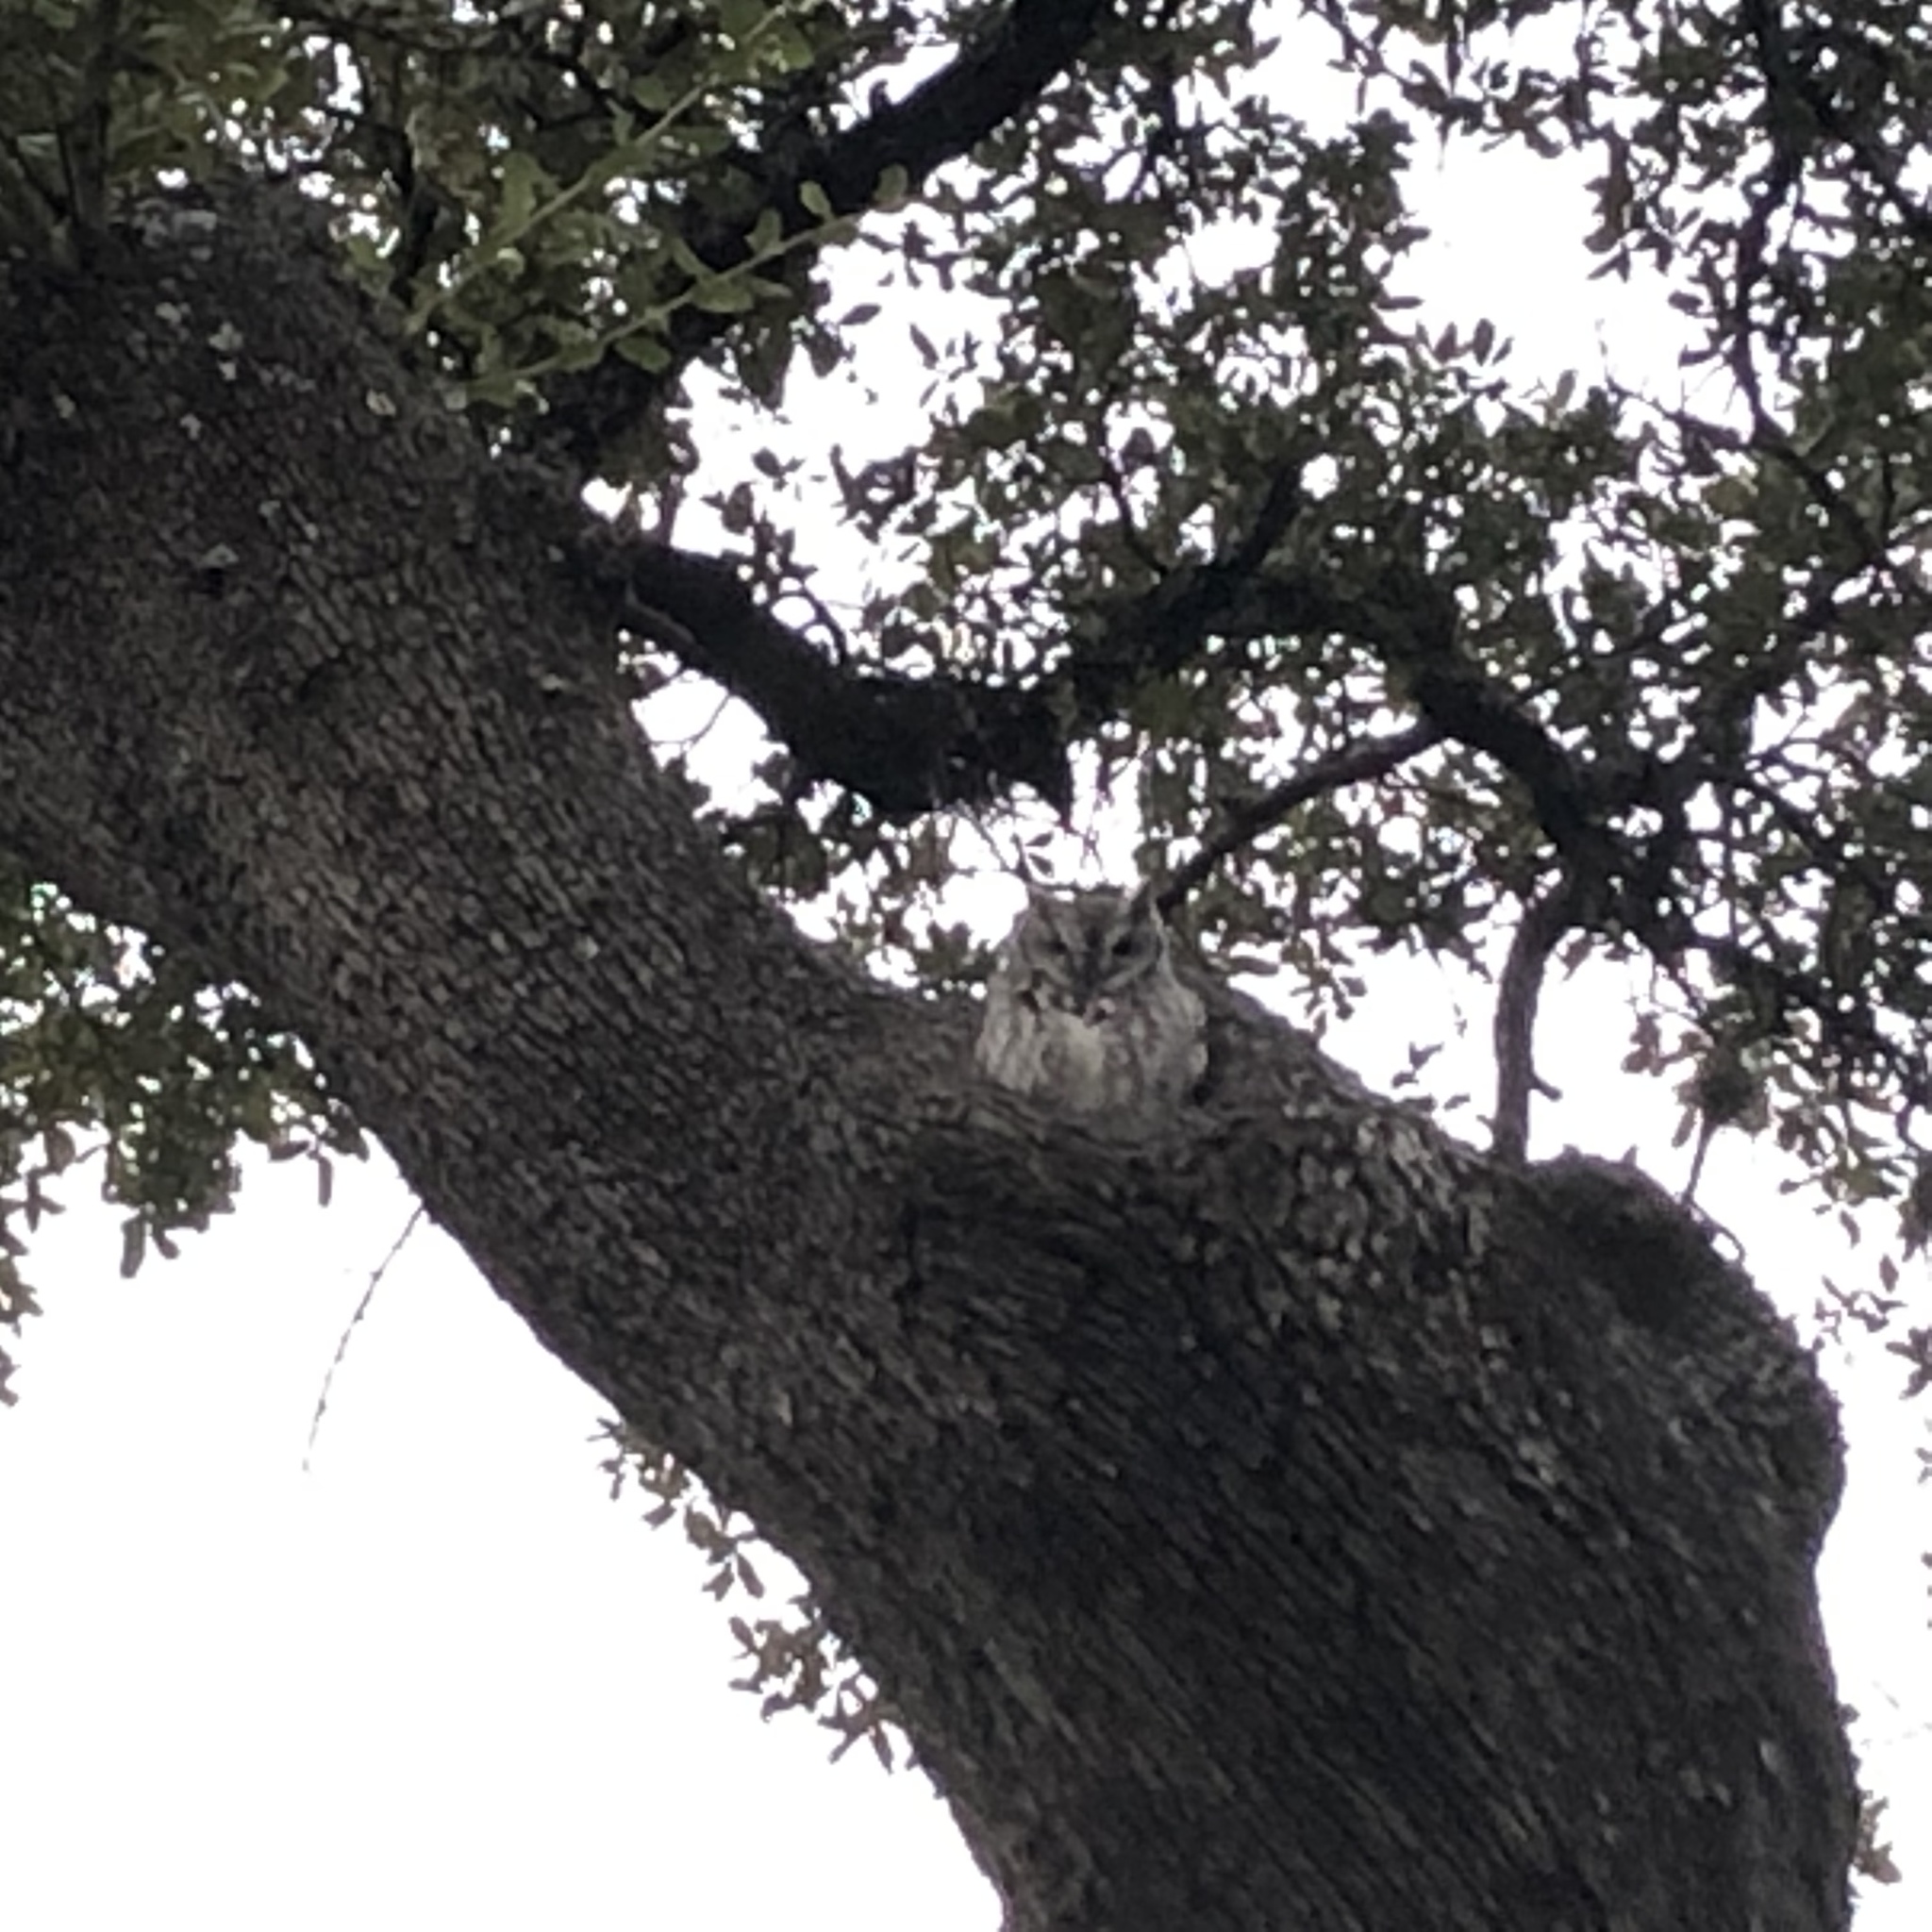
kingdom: Animalia
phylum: Chordata
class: Aves
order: Strigiformes
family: Strigidae
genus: Megascops
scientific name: Megascops asio
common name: Eastern screech-owl
